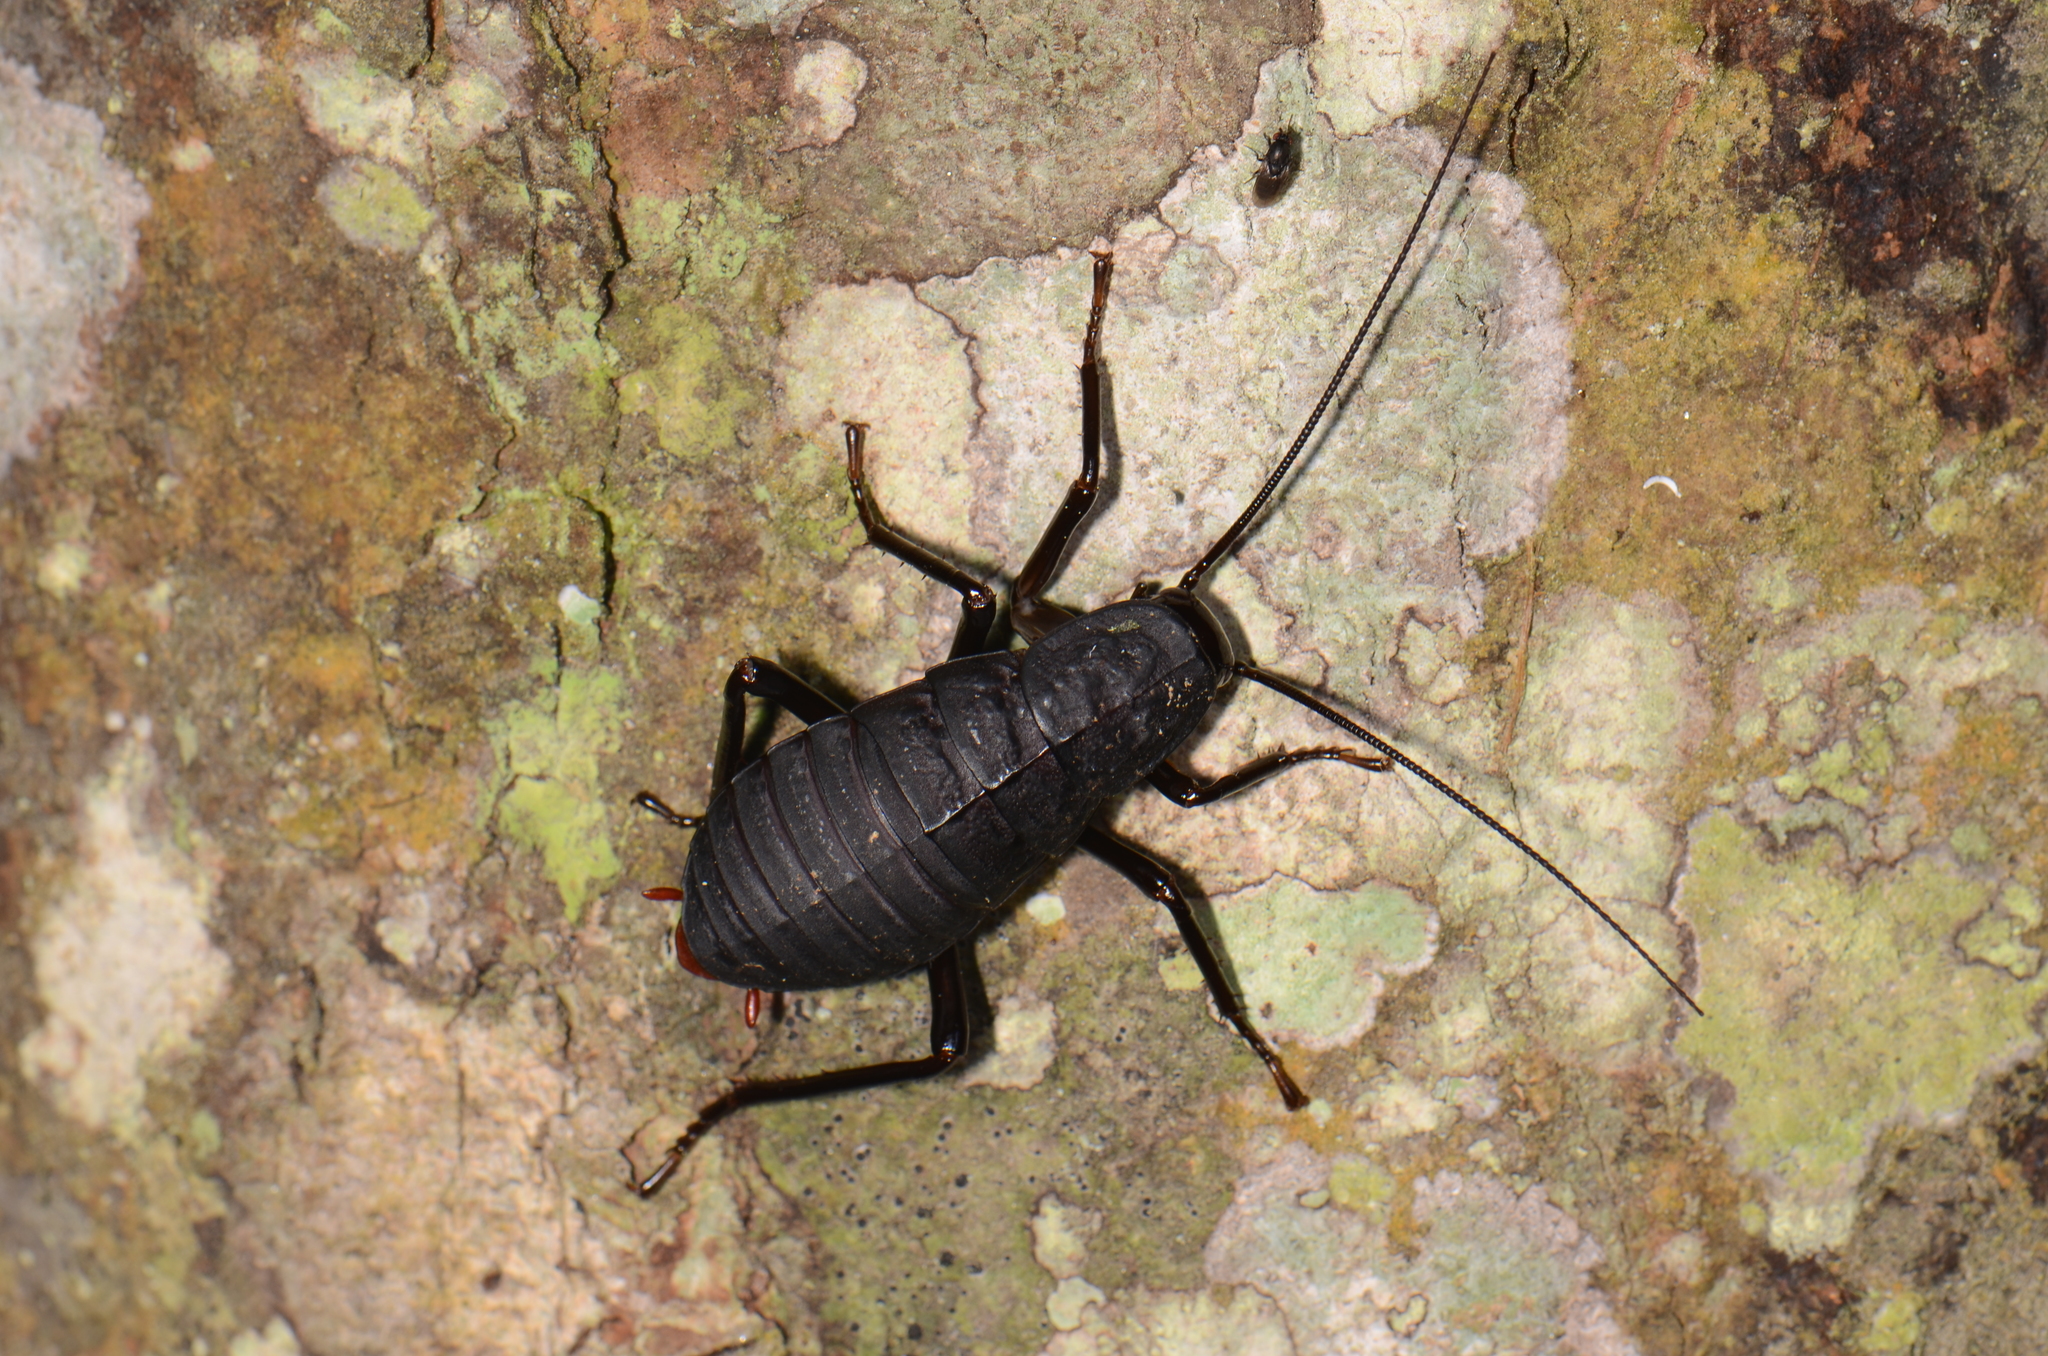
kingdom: Animalia
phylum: Arthropoda
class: Insecta
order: Blattodea
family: Blattidae
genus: Archiblatta
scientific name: Archiblatta beccarii
